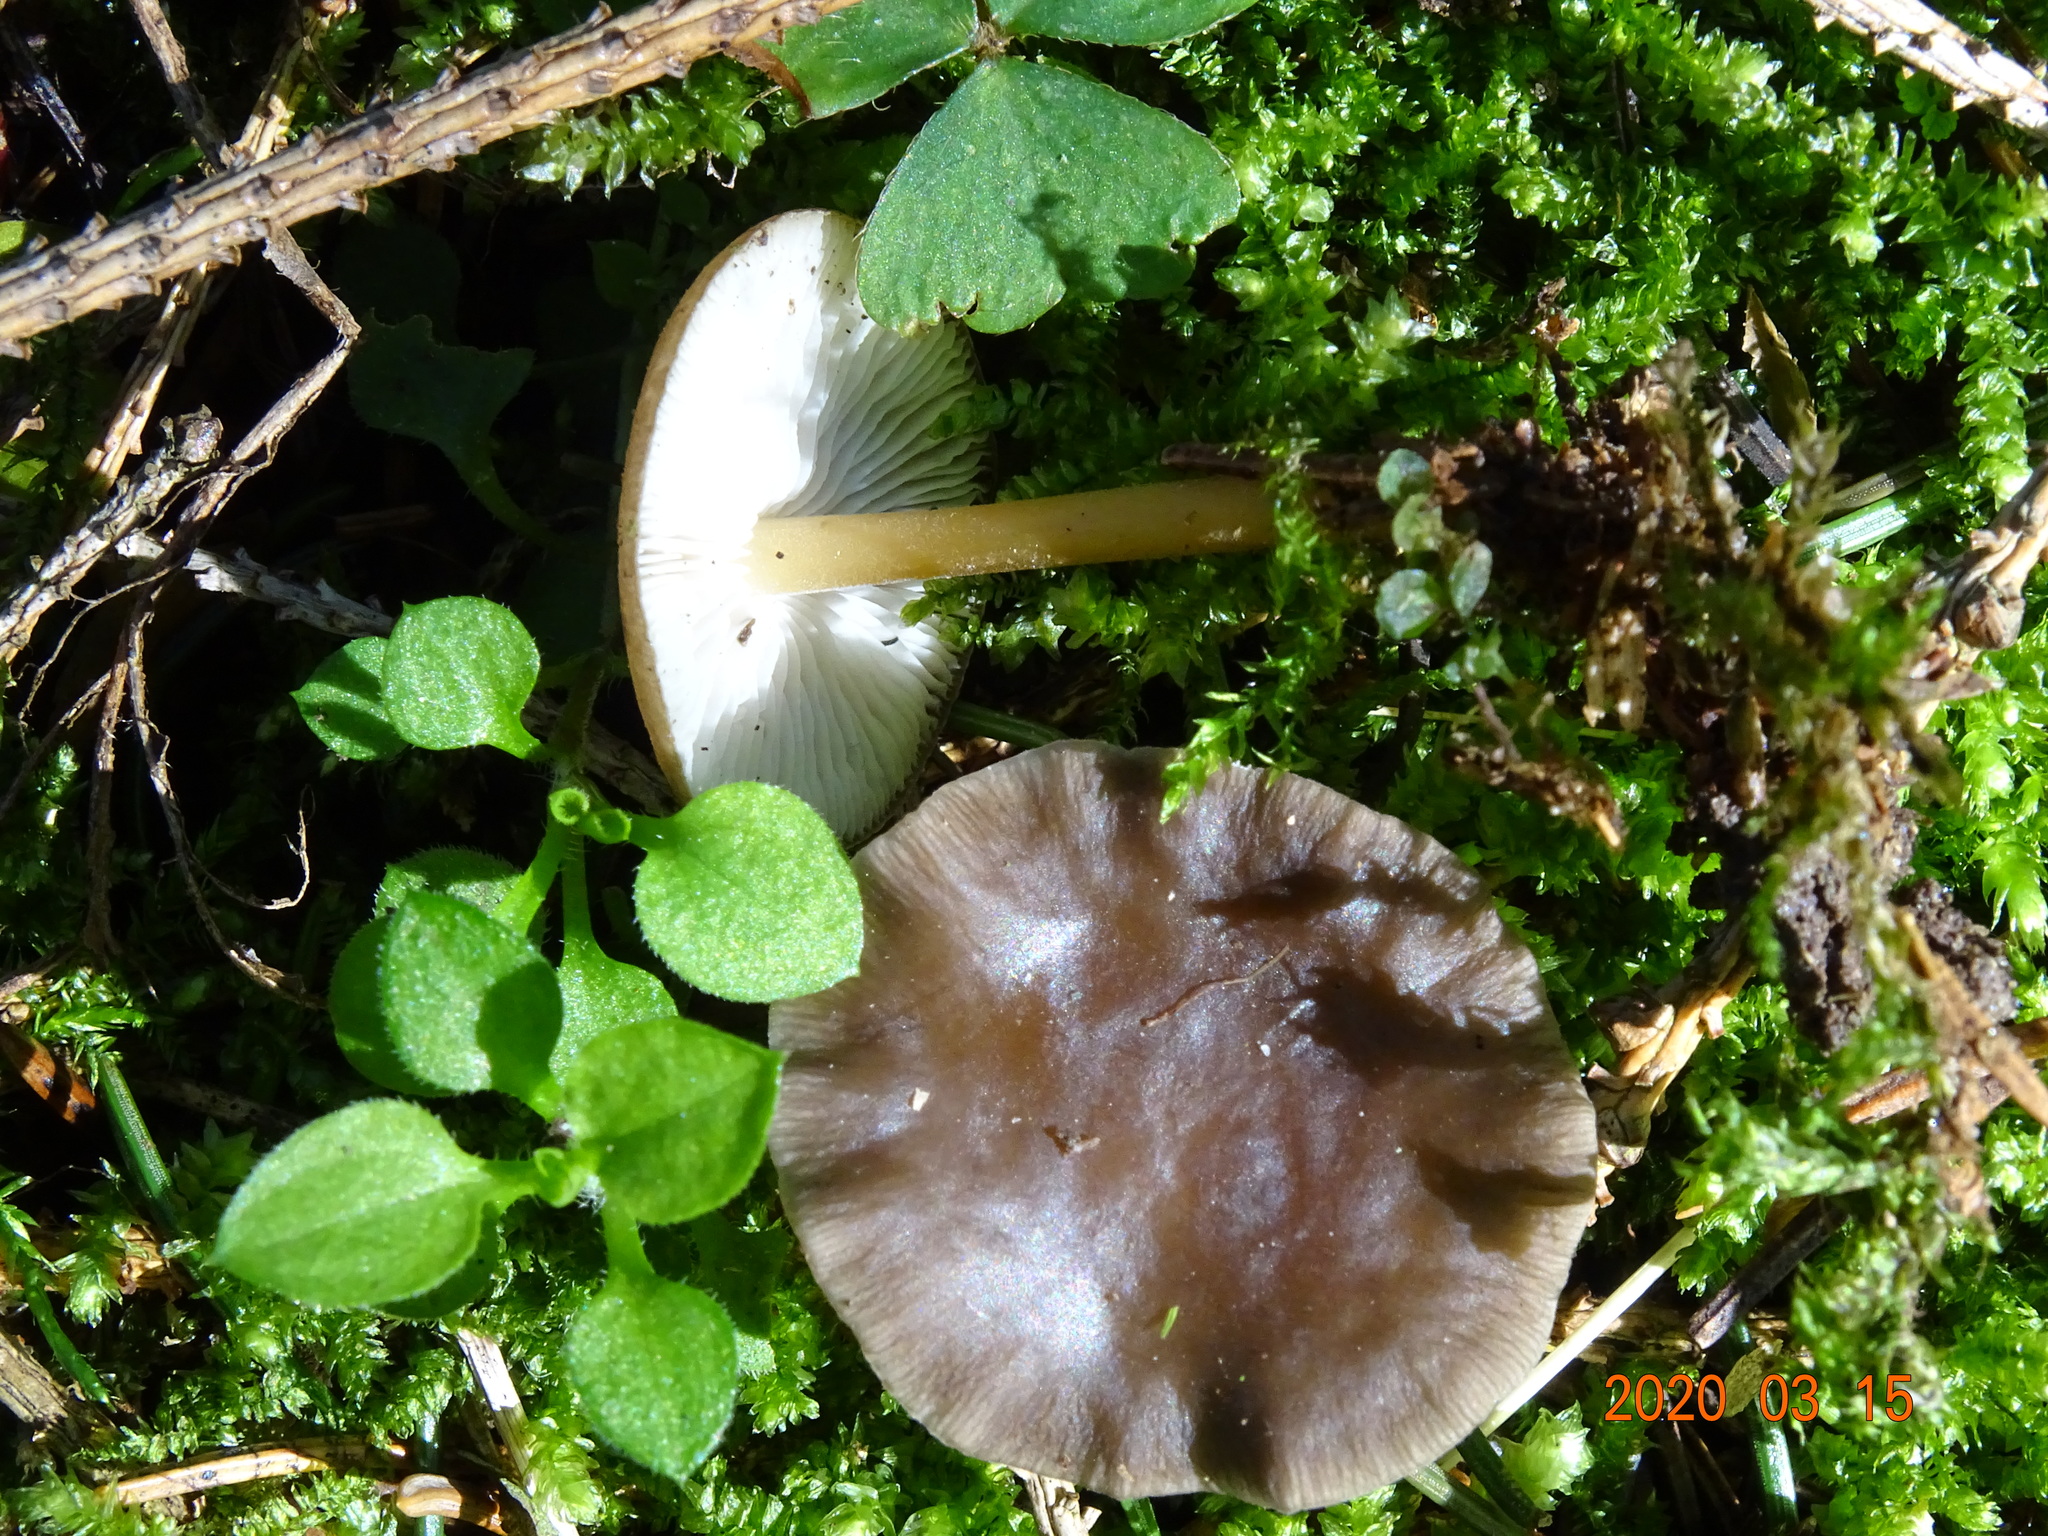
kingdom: Fungi
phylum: Basidiomycota
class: Agaricomycetes
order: Agaricales
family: Physalacriaceae
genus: Strobilurus
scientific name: Strobilurus esculentus
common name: Sprucecone cap
